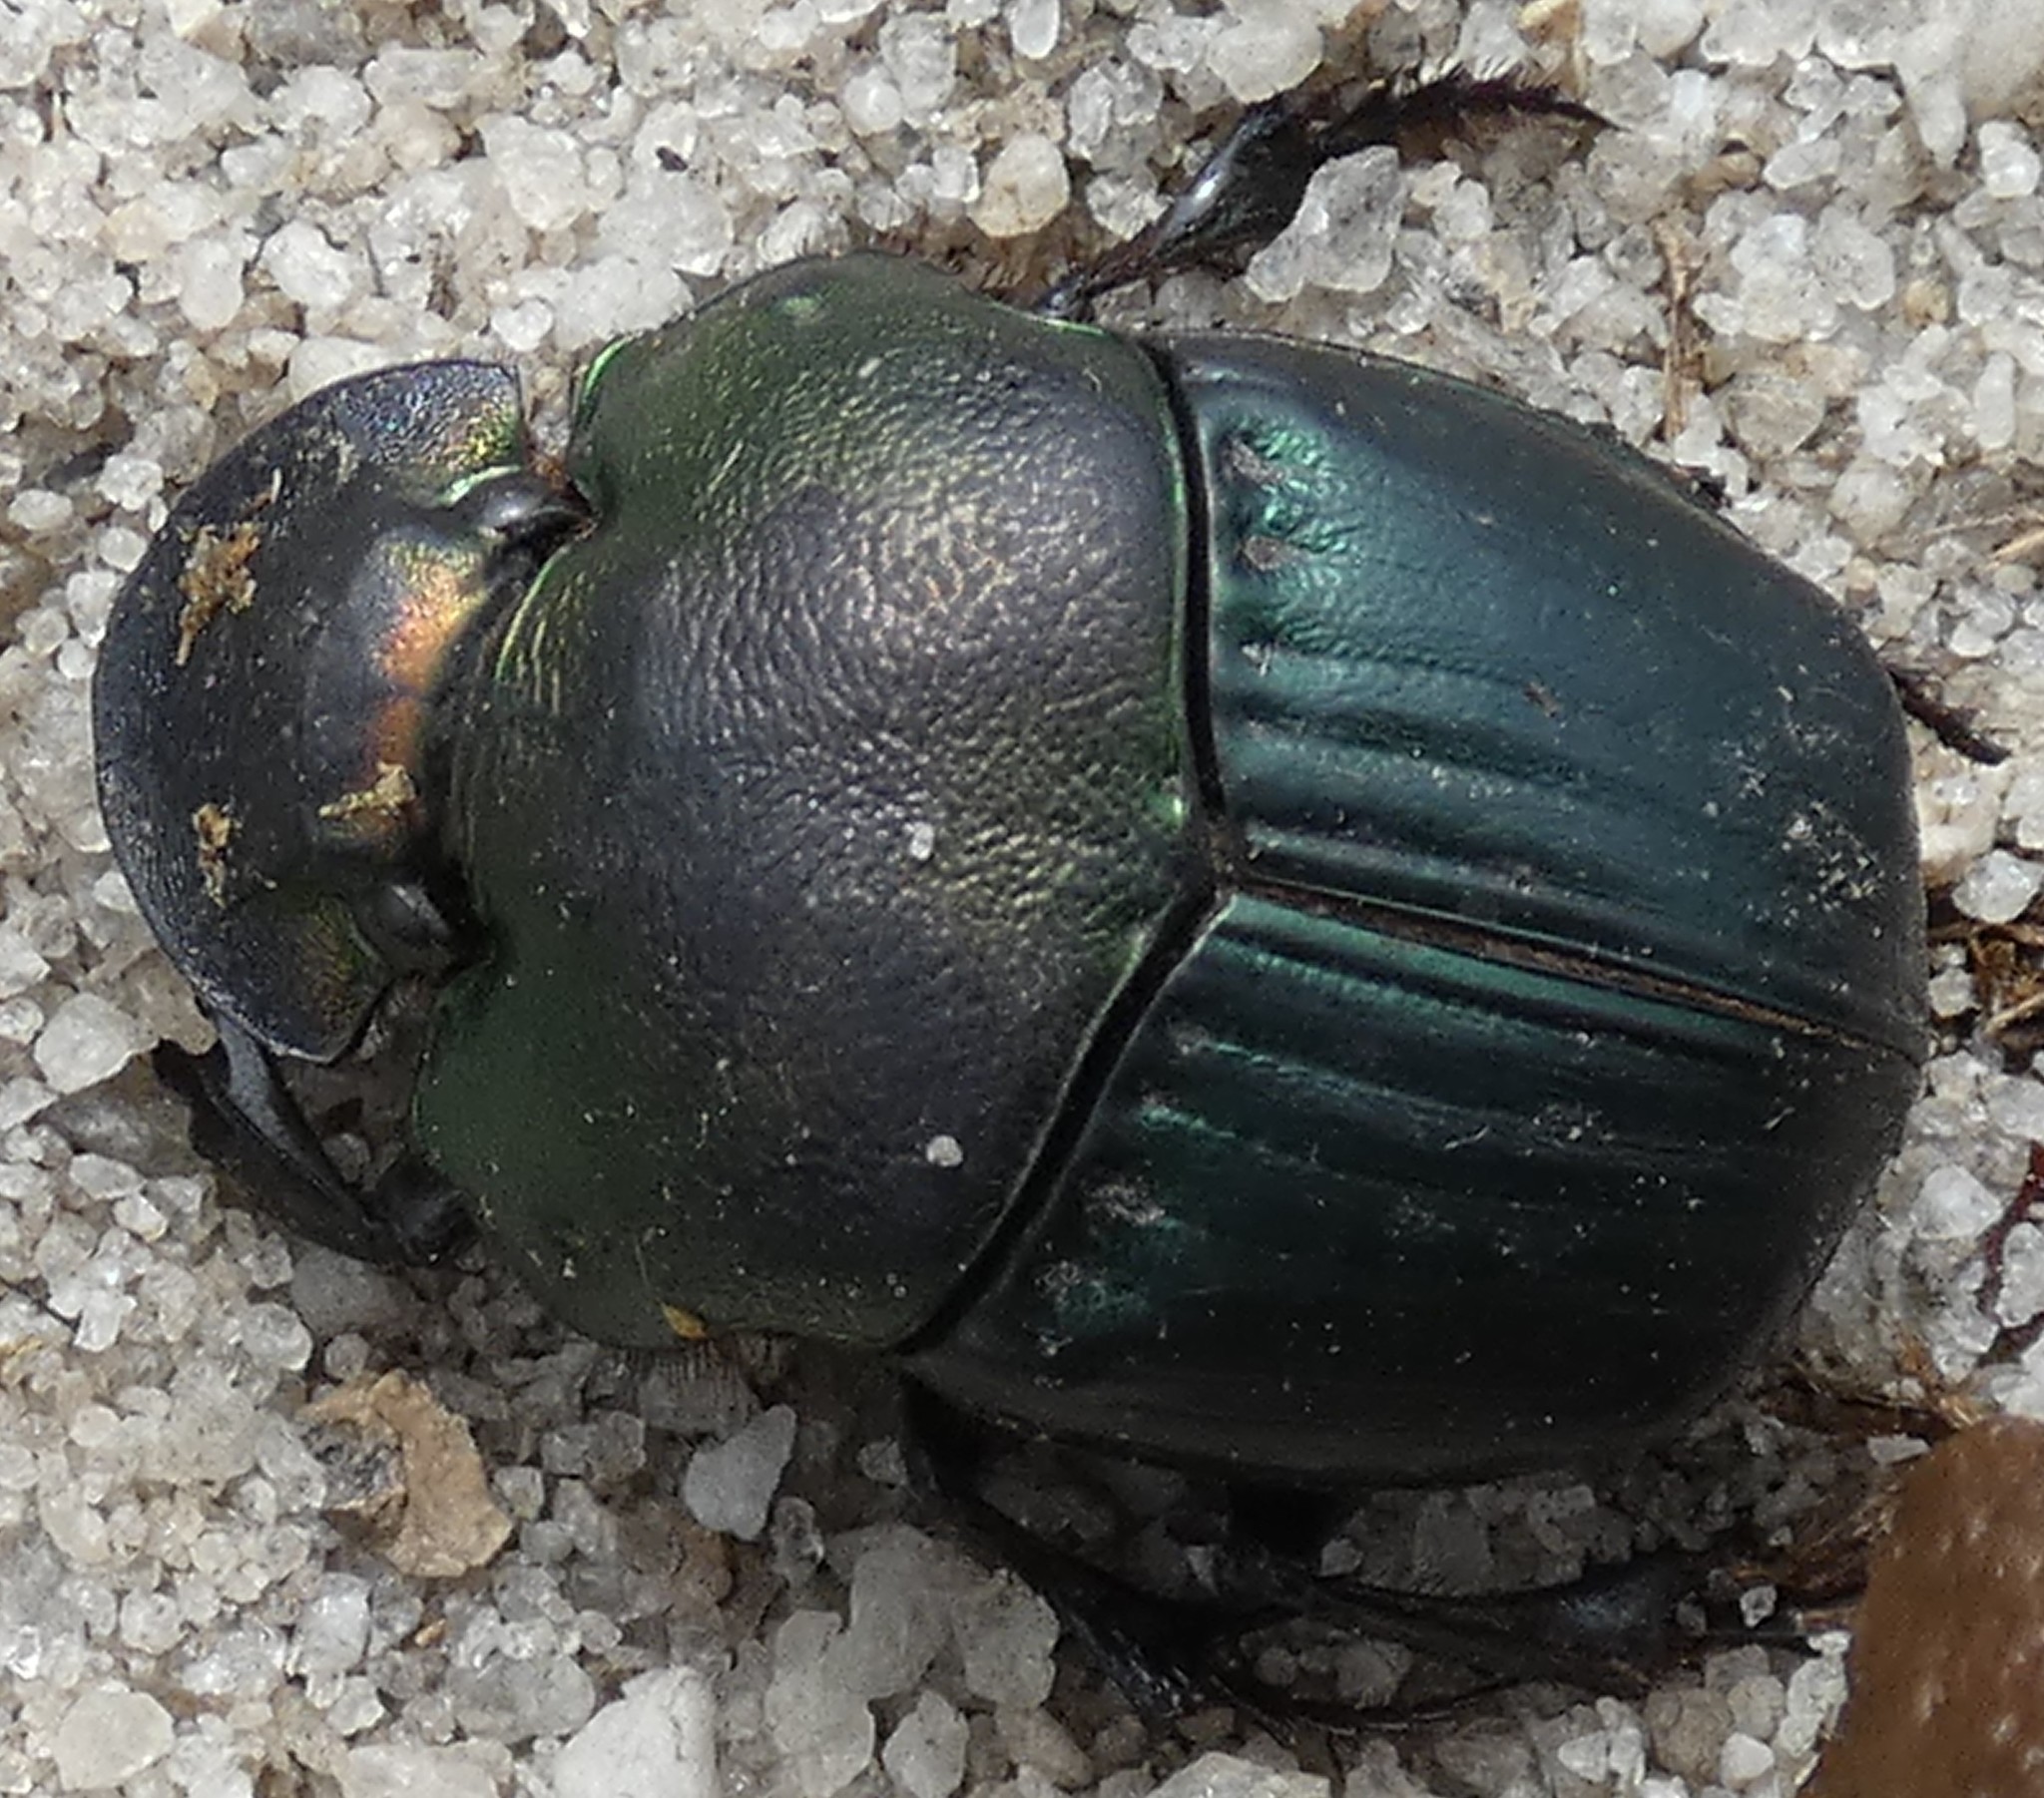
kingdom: Animalia
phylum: Arthropoda
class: Insecta
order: Coleoptera
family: Scarabaeidae
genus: Phanaeus
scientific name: Phanaeus igneus
